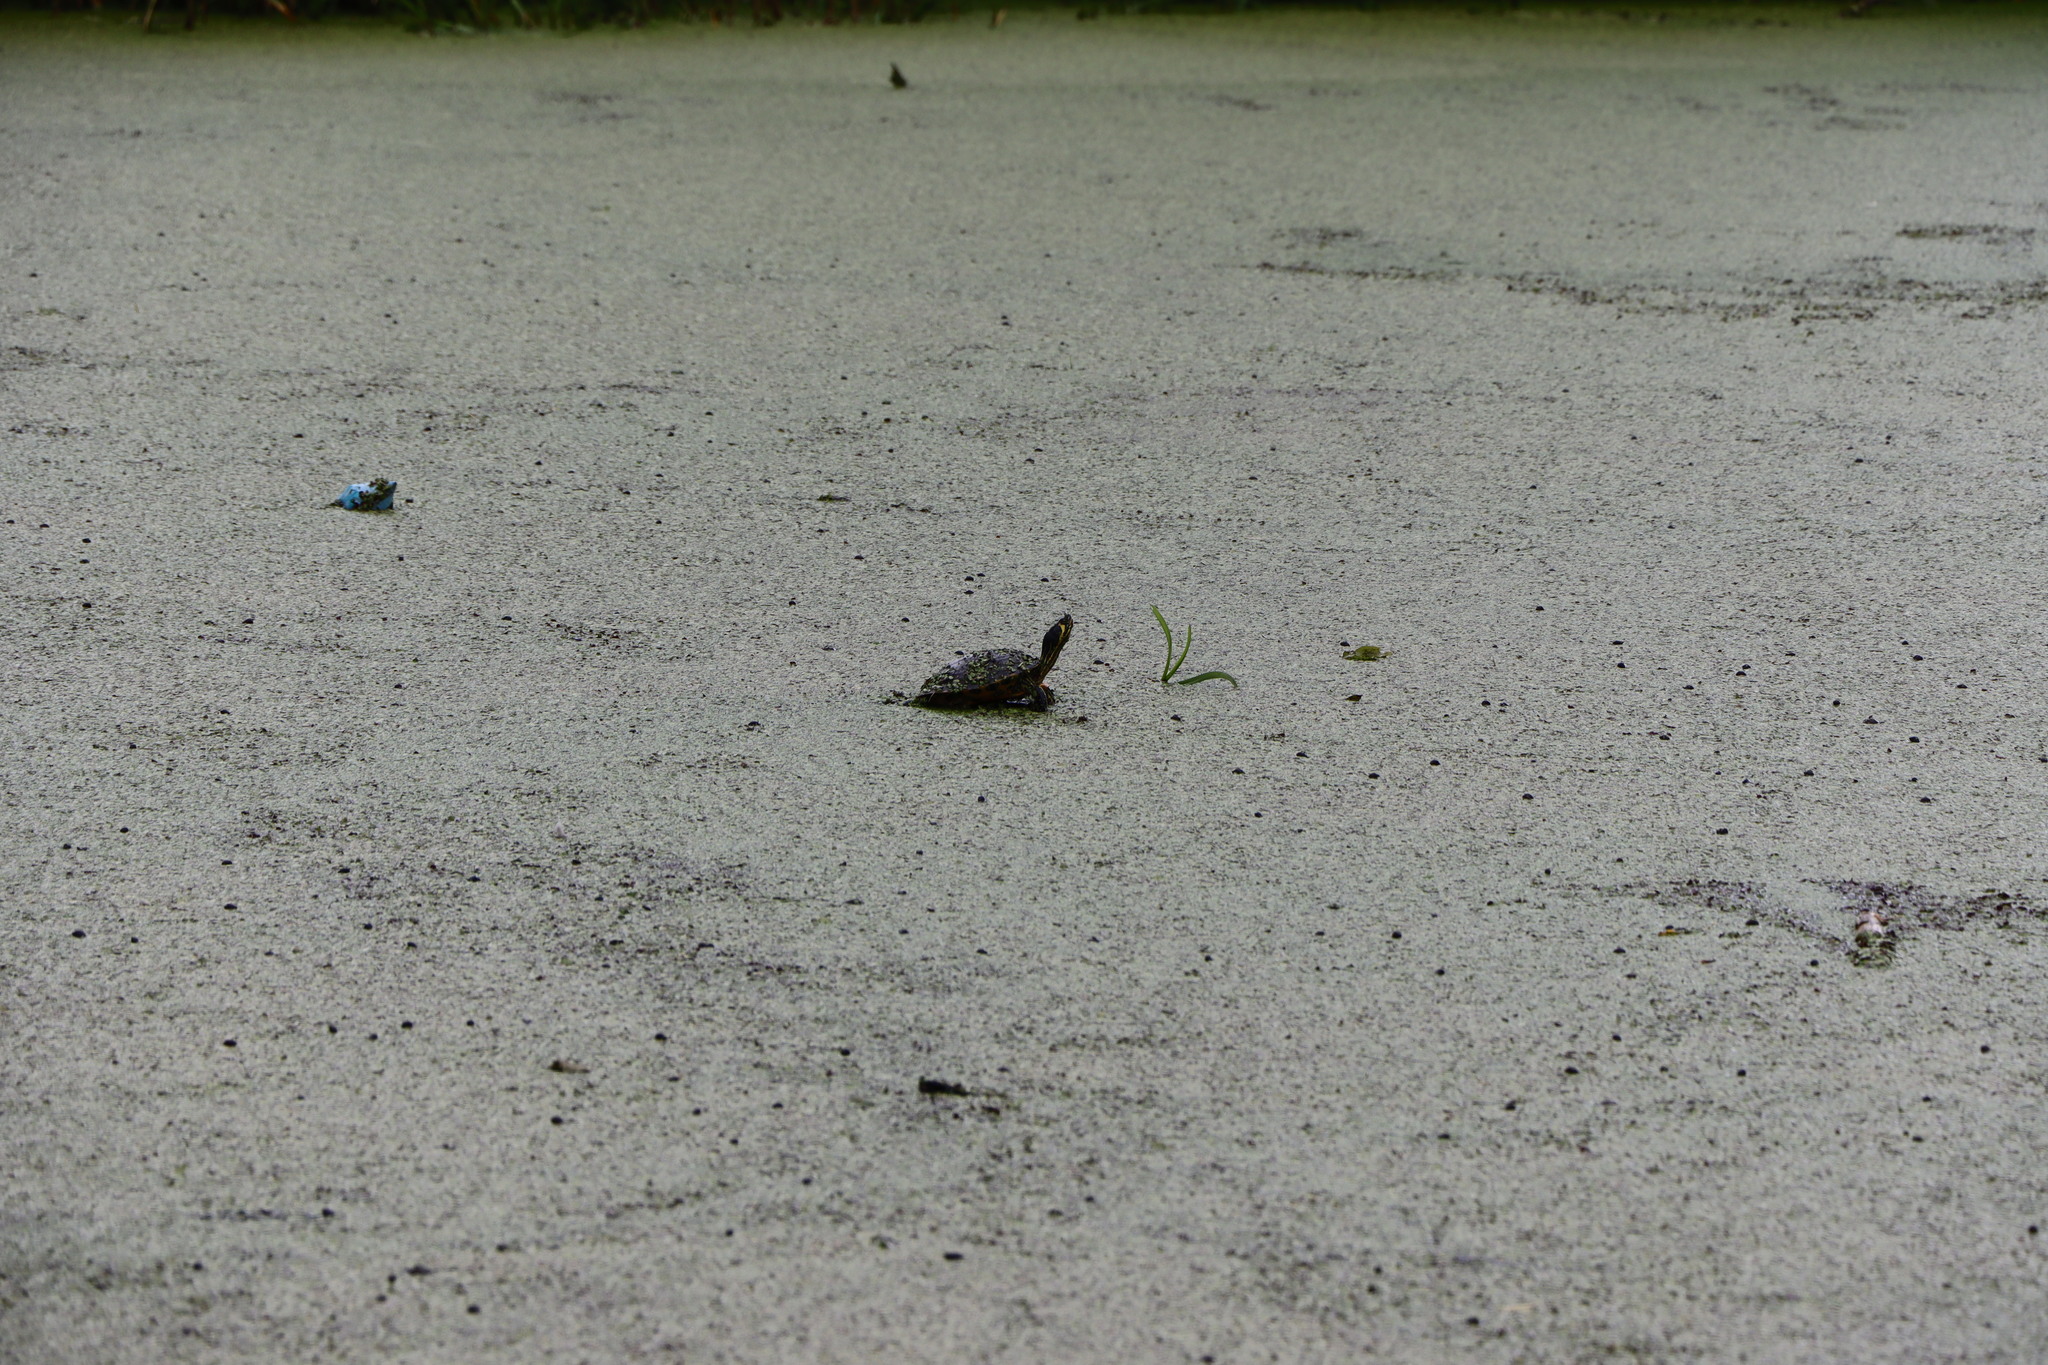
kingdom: Animalia
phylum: Chordata
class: Testudines
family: Emydidae
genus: Trachemys
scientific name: Trachemys scripta
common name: Slider
